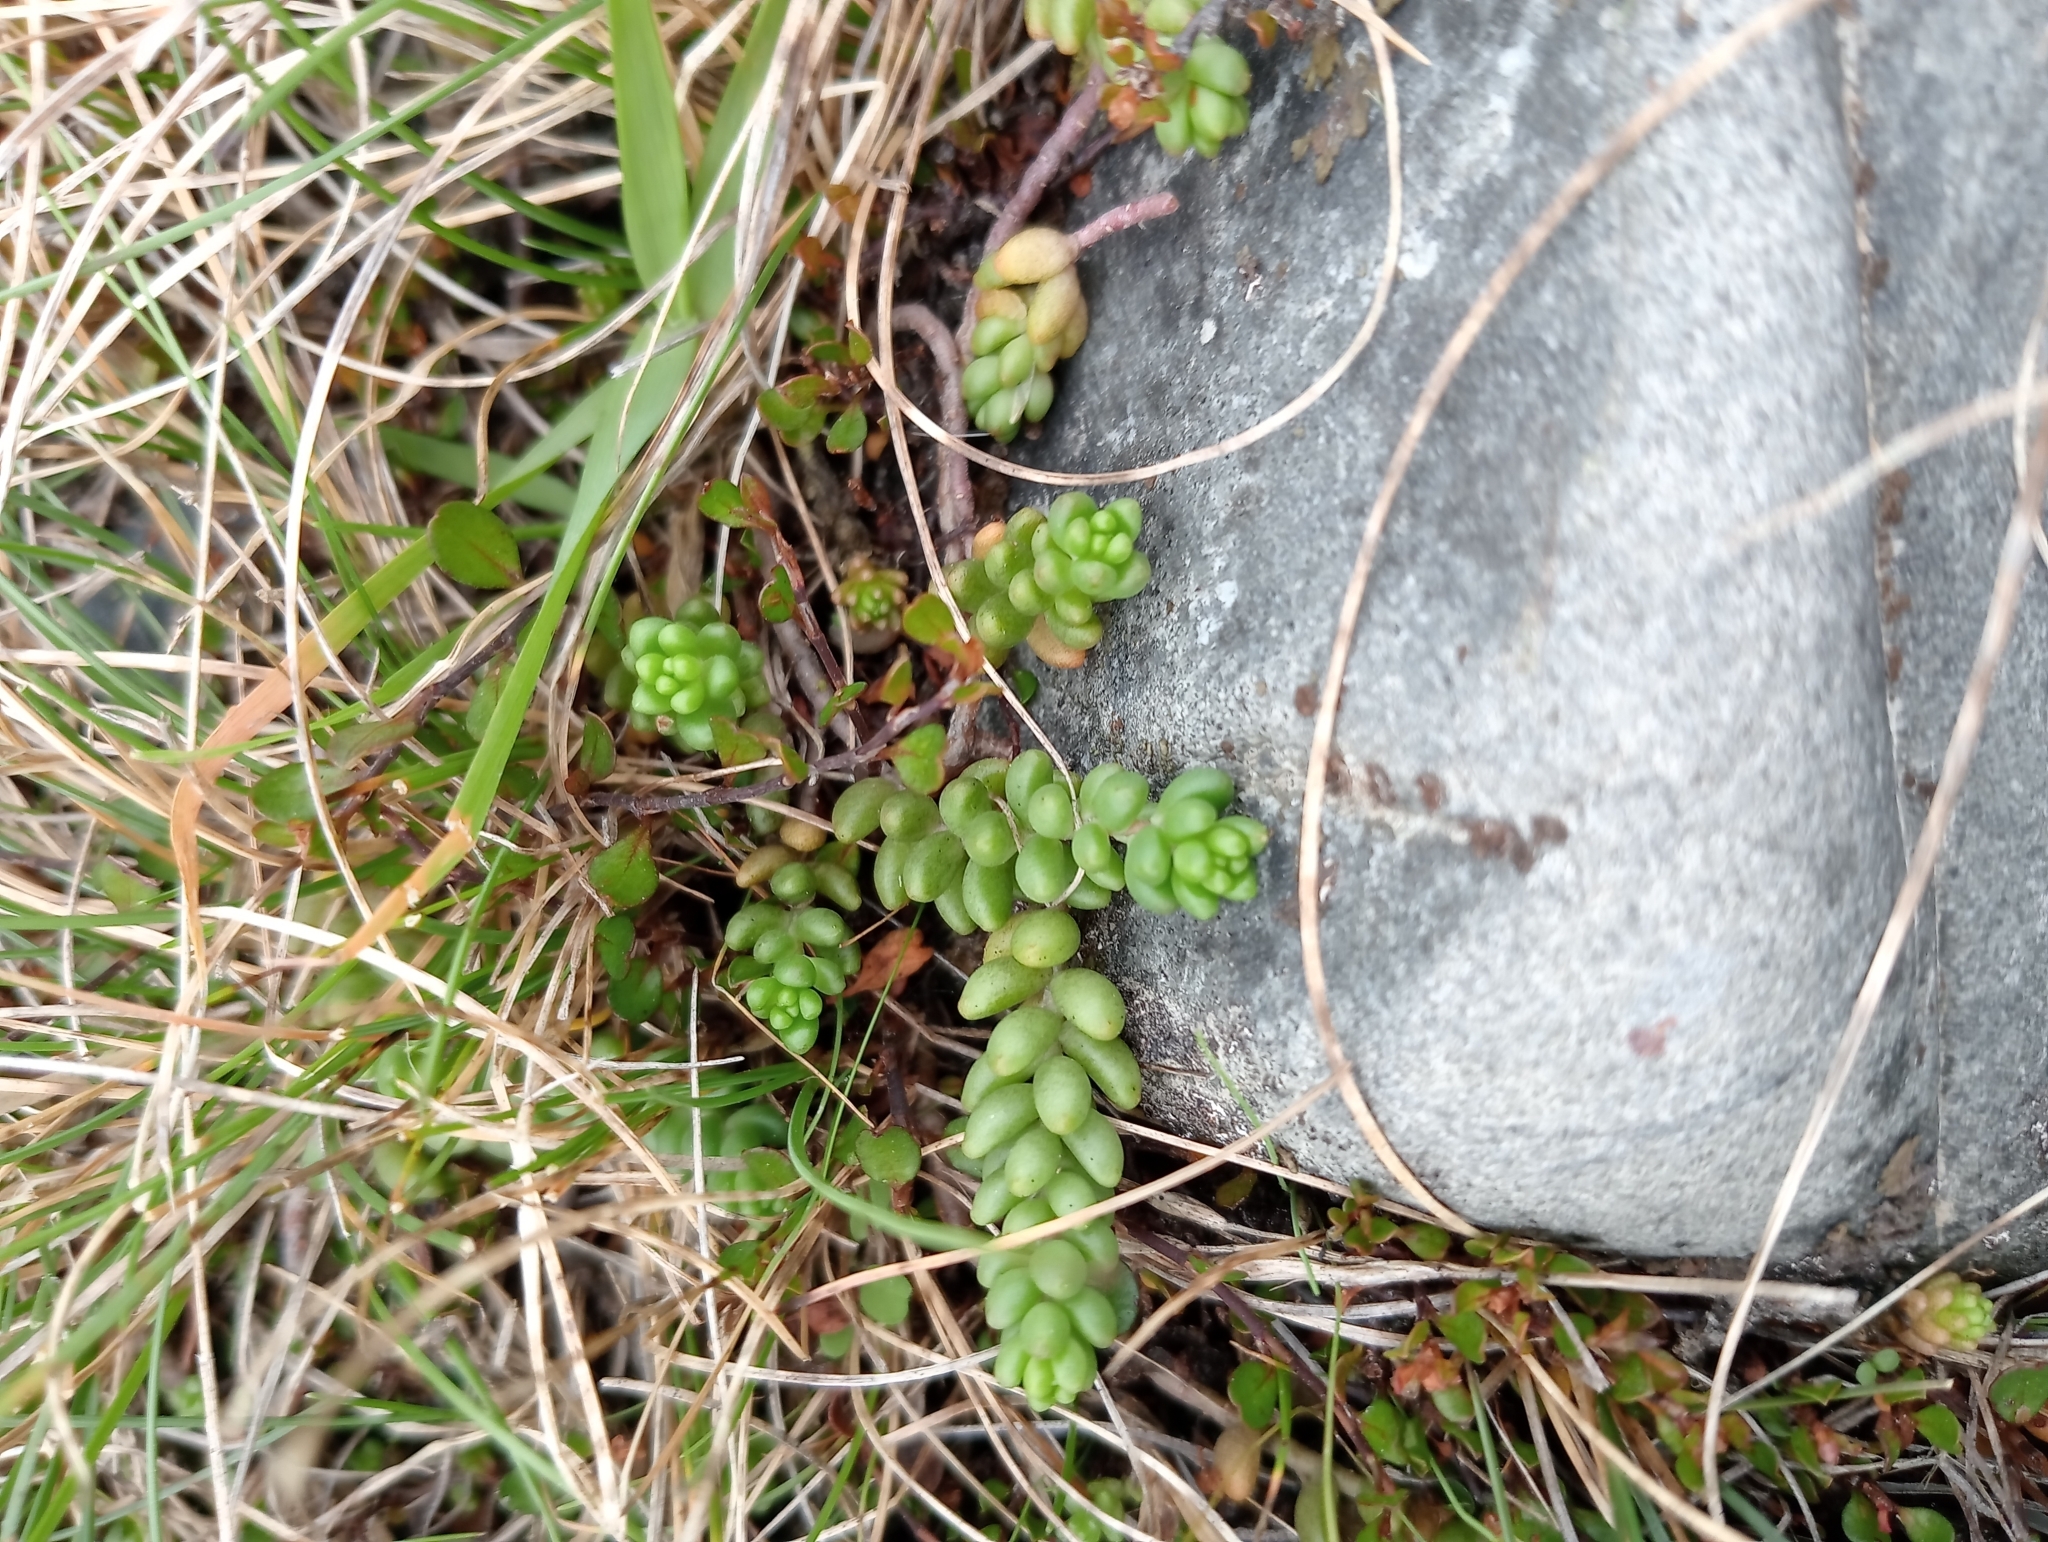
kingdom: Plantae
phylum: Tracheophyta
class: Magnoliopsida
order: Saxifragales
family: Crassulaceae
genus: Sedum
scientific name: Sedum album
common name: White stonecrop
